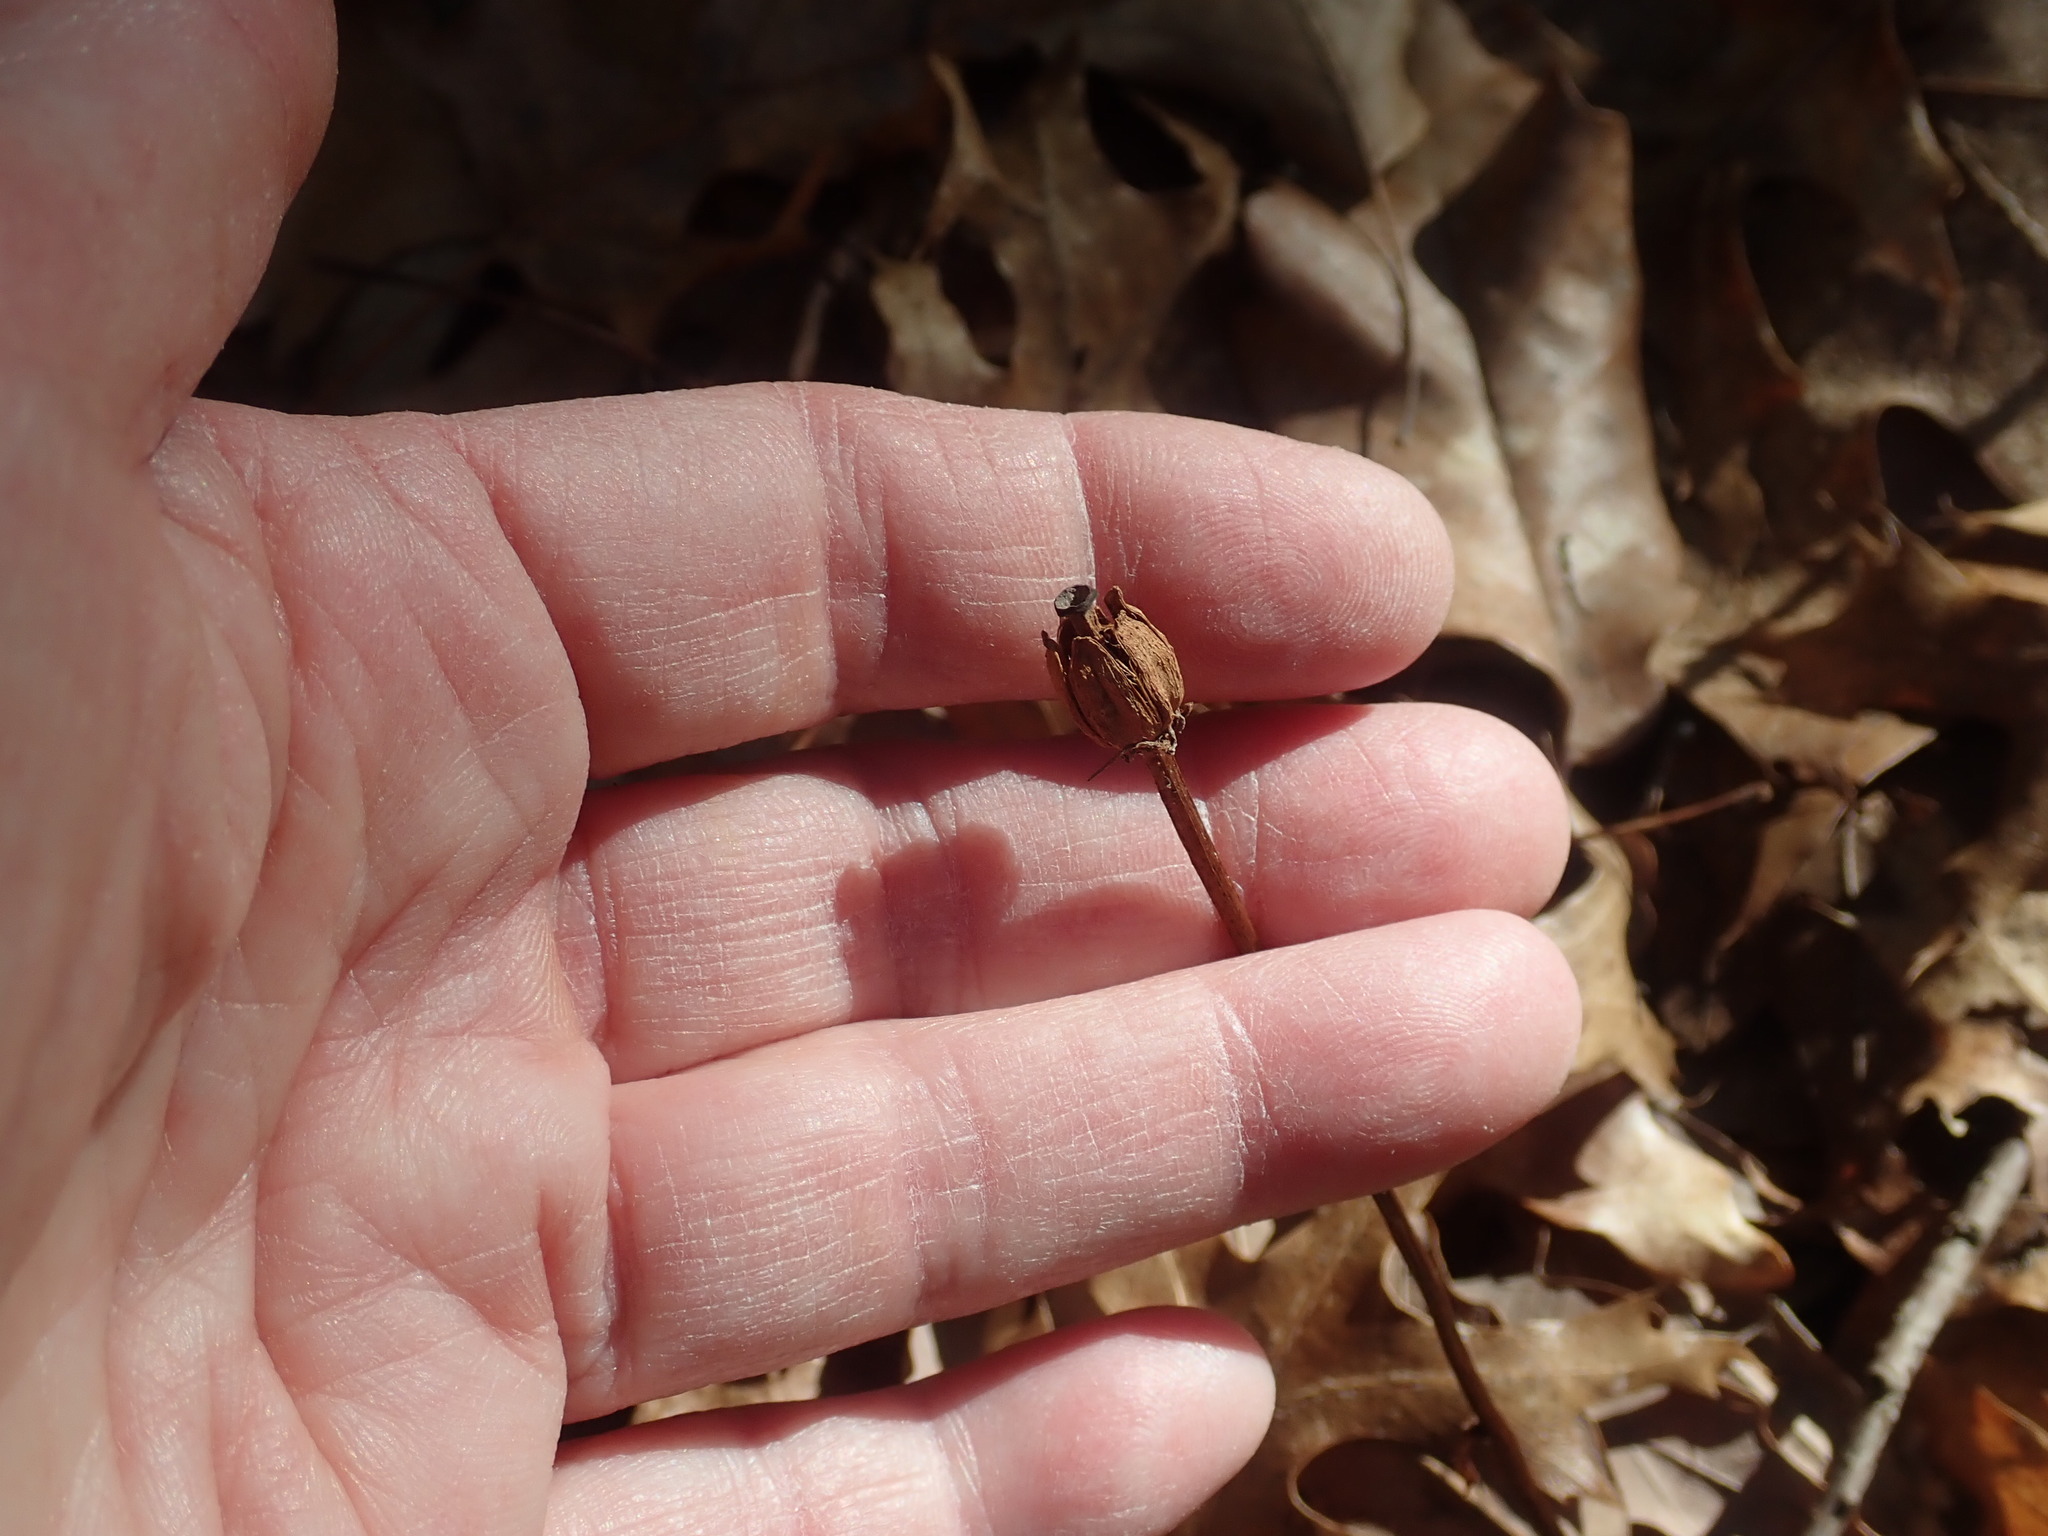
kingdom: Plantae
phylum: Tracheophyta
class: Magnoliopsida
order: Ericales
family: Ericaceae
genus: Monotropa
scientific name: Monotropa uniflora
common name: Convulsion root
